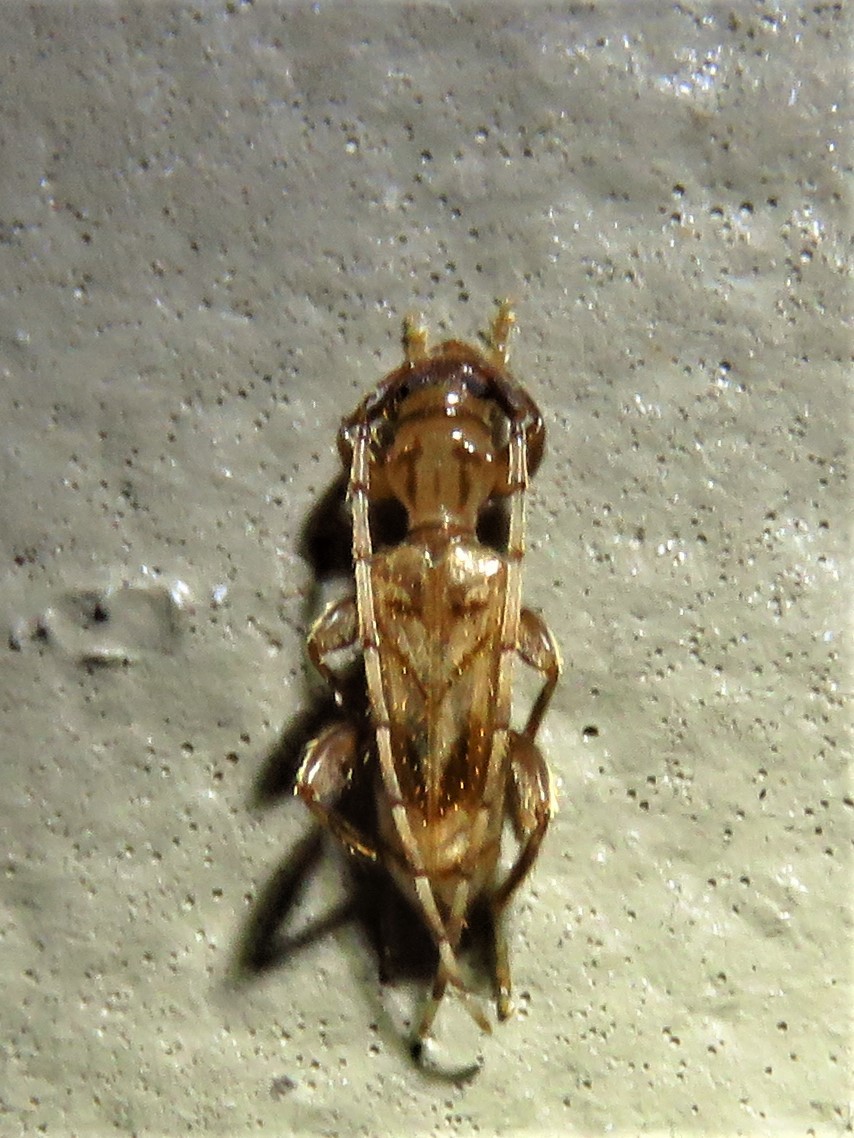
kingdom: Animalia
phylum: Arthropoda
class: Insecta
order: Coleoptera
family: Cerambycidae
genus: Obrium
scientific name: Obrium maculatum
